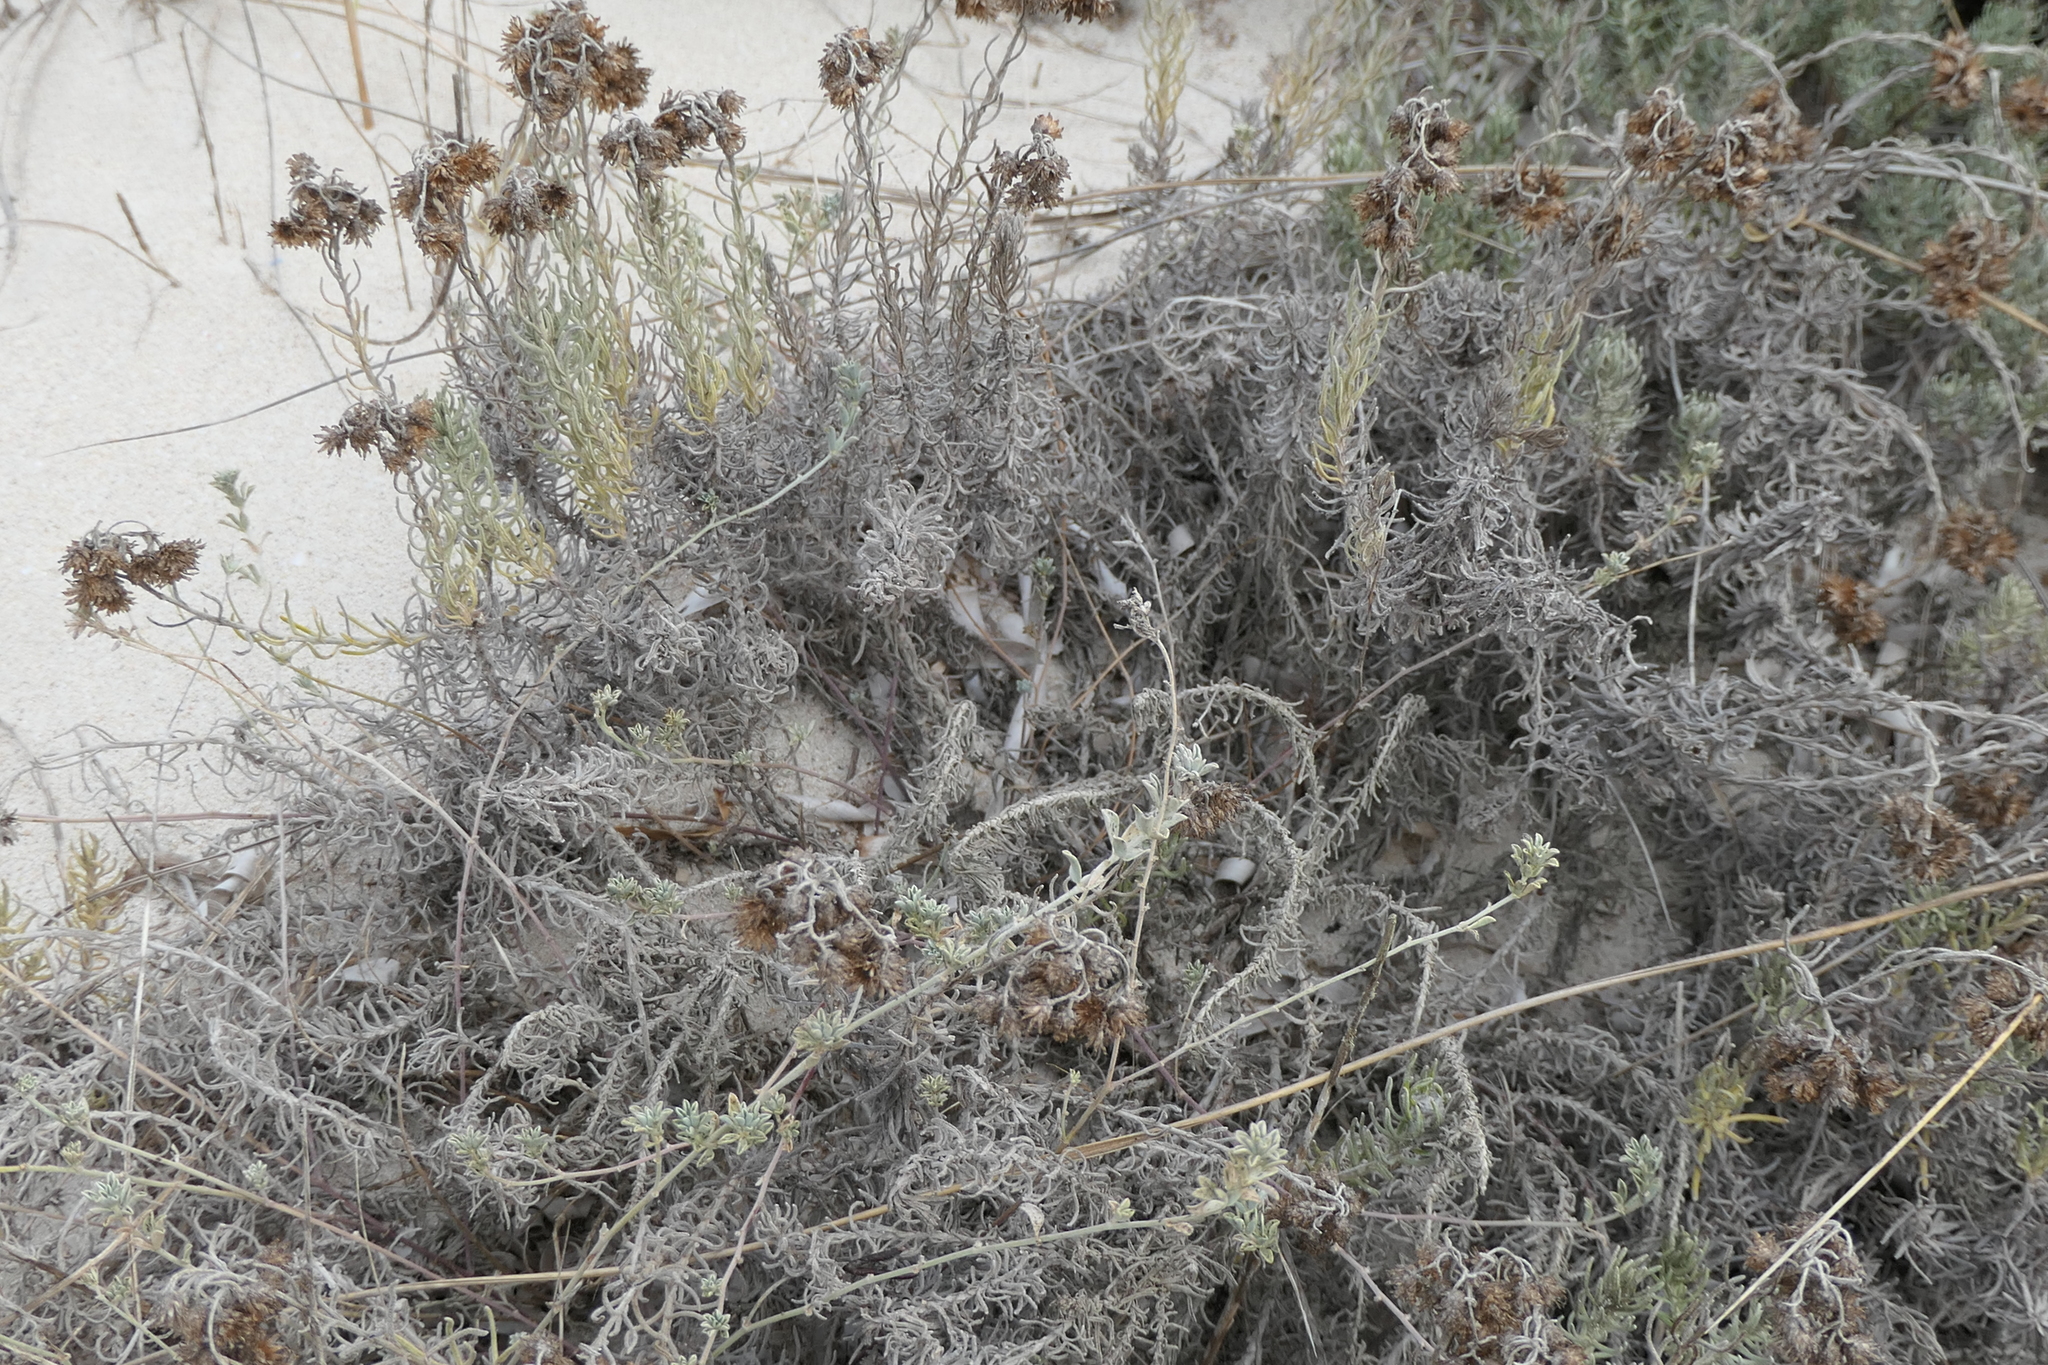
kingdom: Plantae
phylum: Tracheophyta
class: Magnoliopsida
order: Asterales
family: Asteraceae
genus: Helichrysum
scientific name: Helichrysum stoechas
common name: Goldilocks
